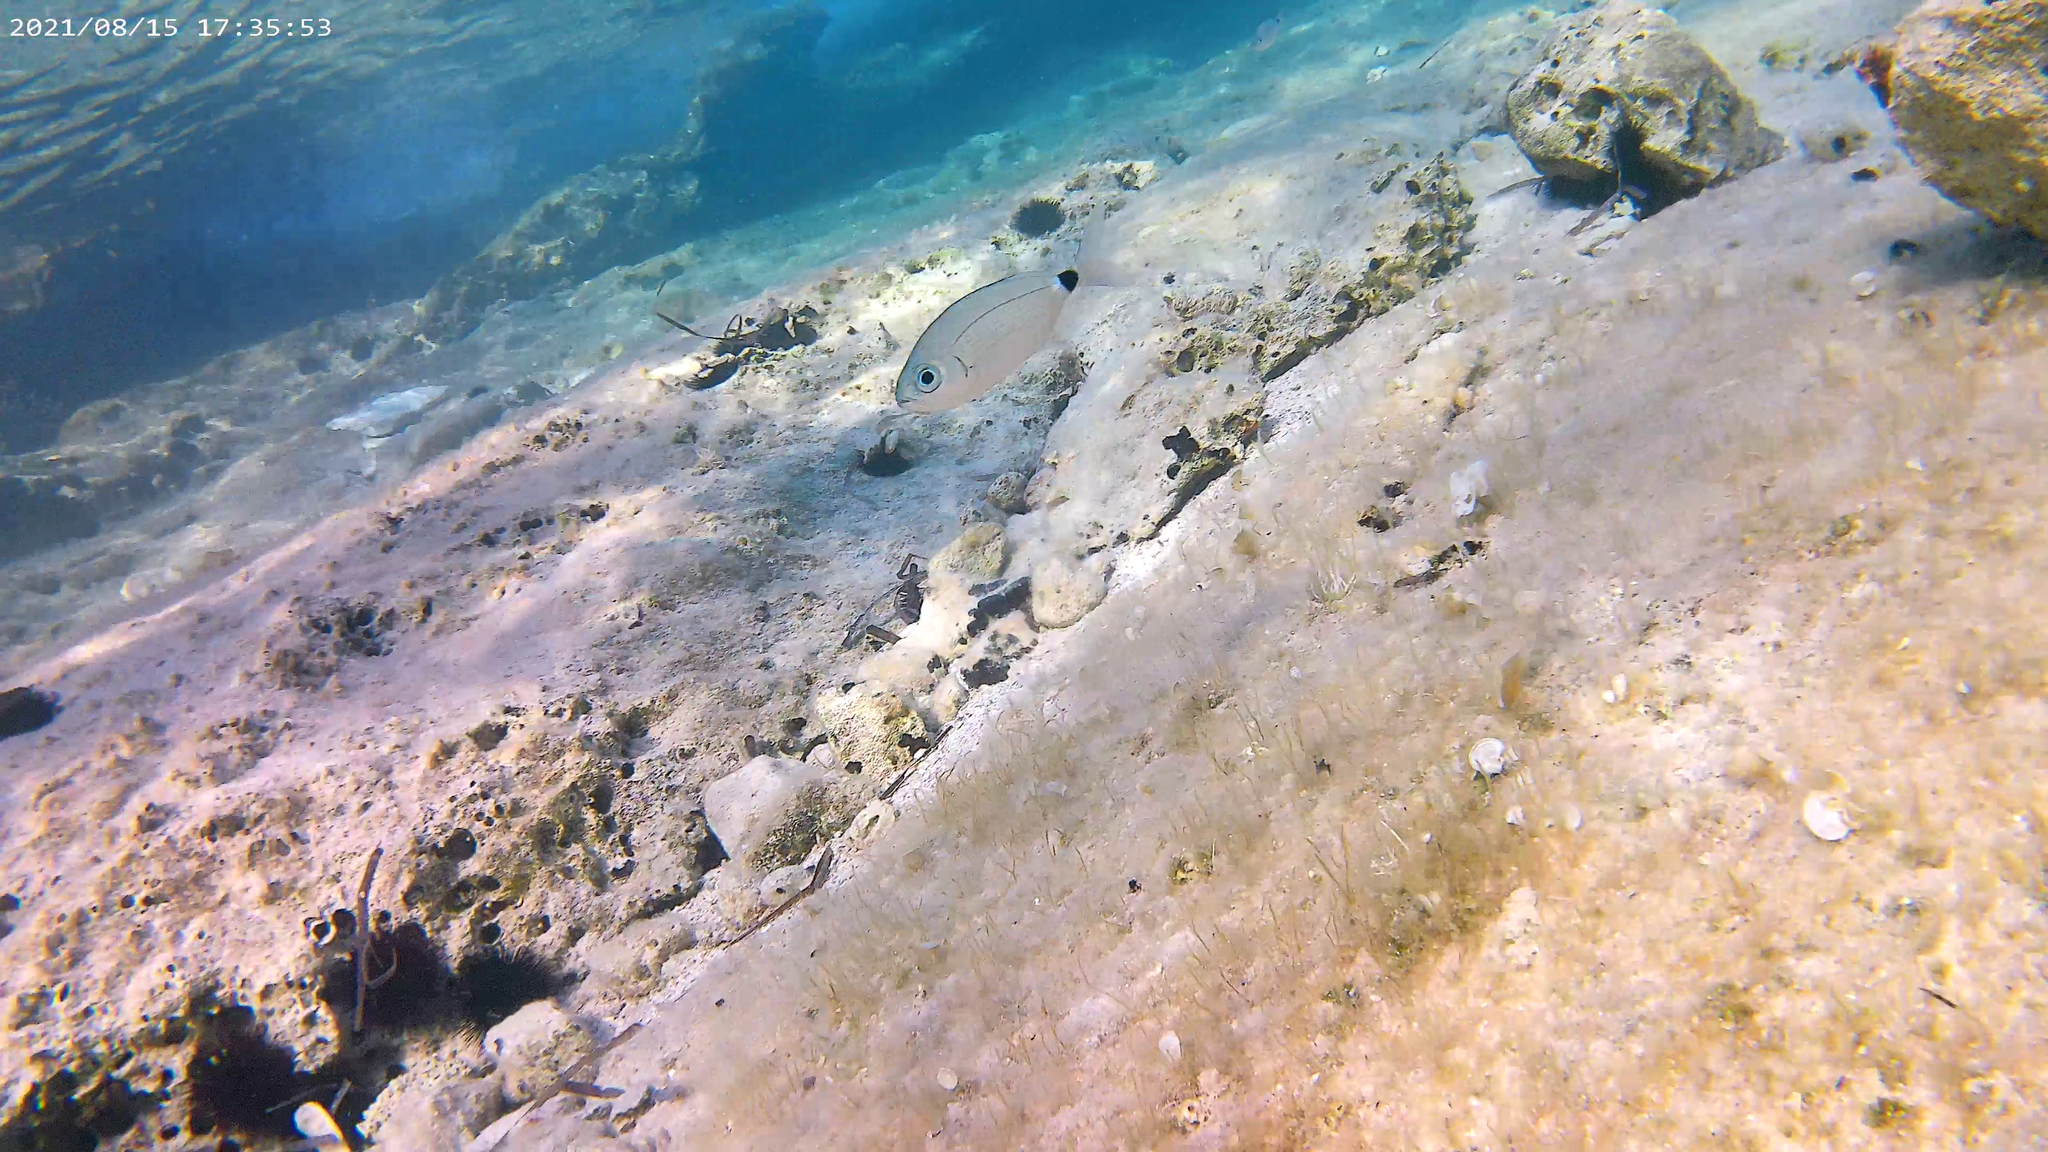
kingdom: Animalia
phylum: Chordata
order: Perciformes
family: Sparidae
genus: Oblada
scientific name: Oblada melanura
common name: Saddled seabream
